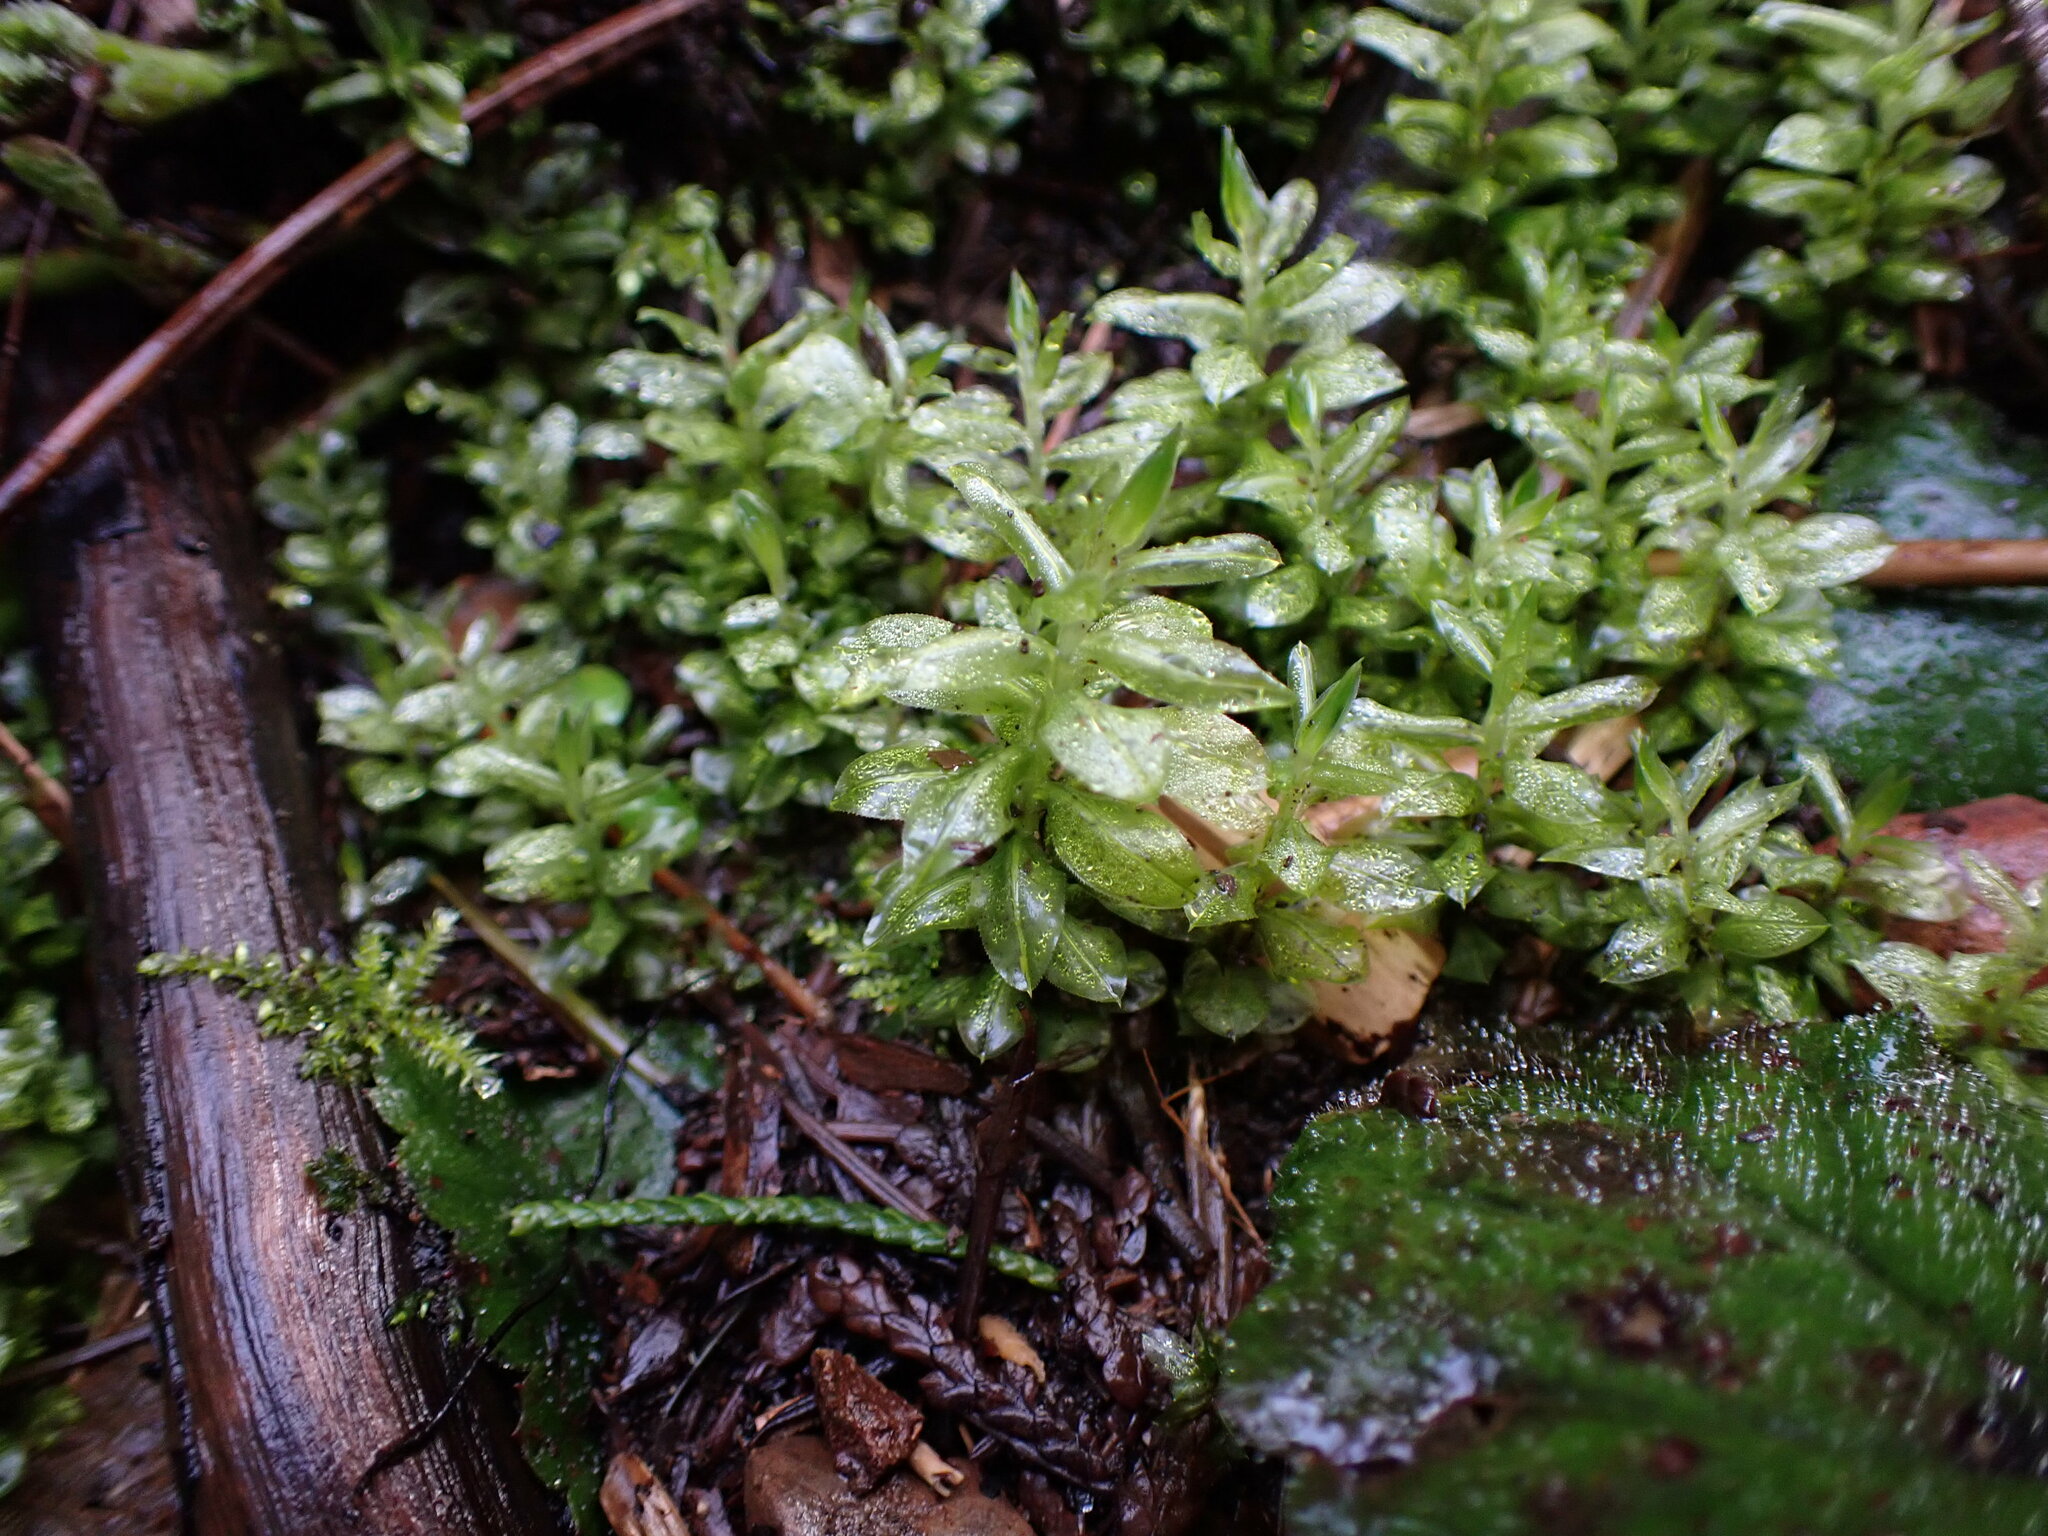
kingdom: Plantae
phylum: Bryophyta
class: Bryopsida
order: Bryales
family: Mniaceae
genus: Plagiomnium
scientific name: Plagiomnium insigne
